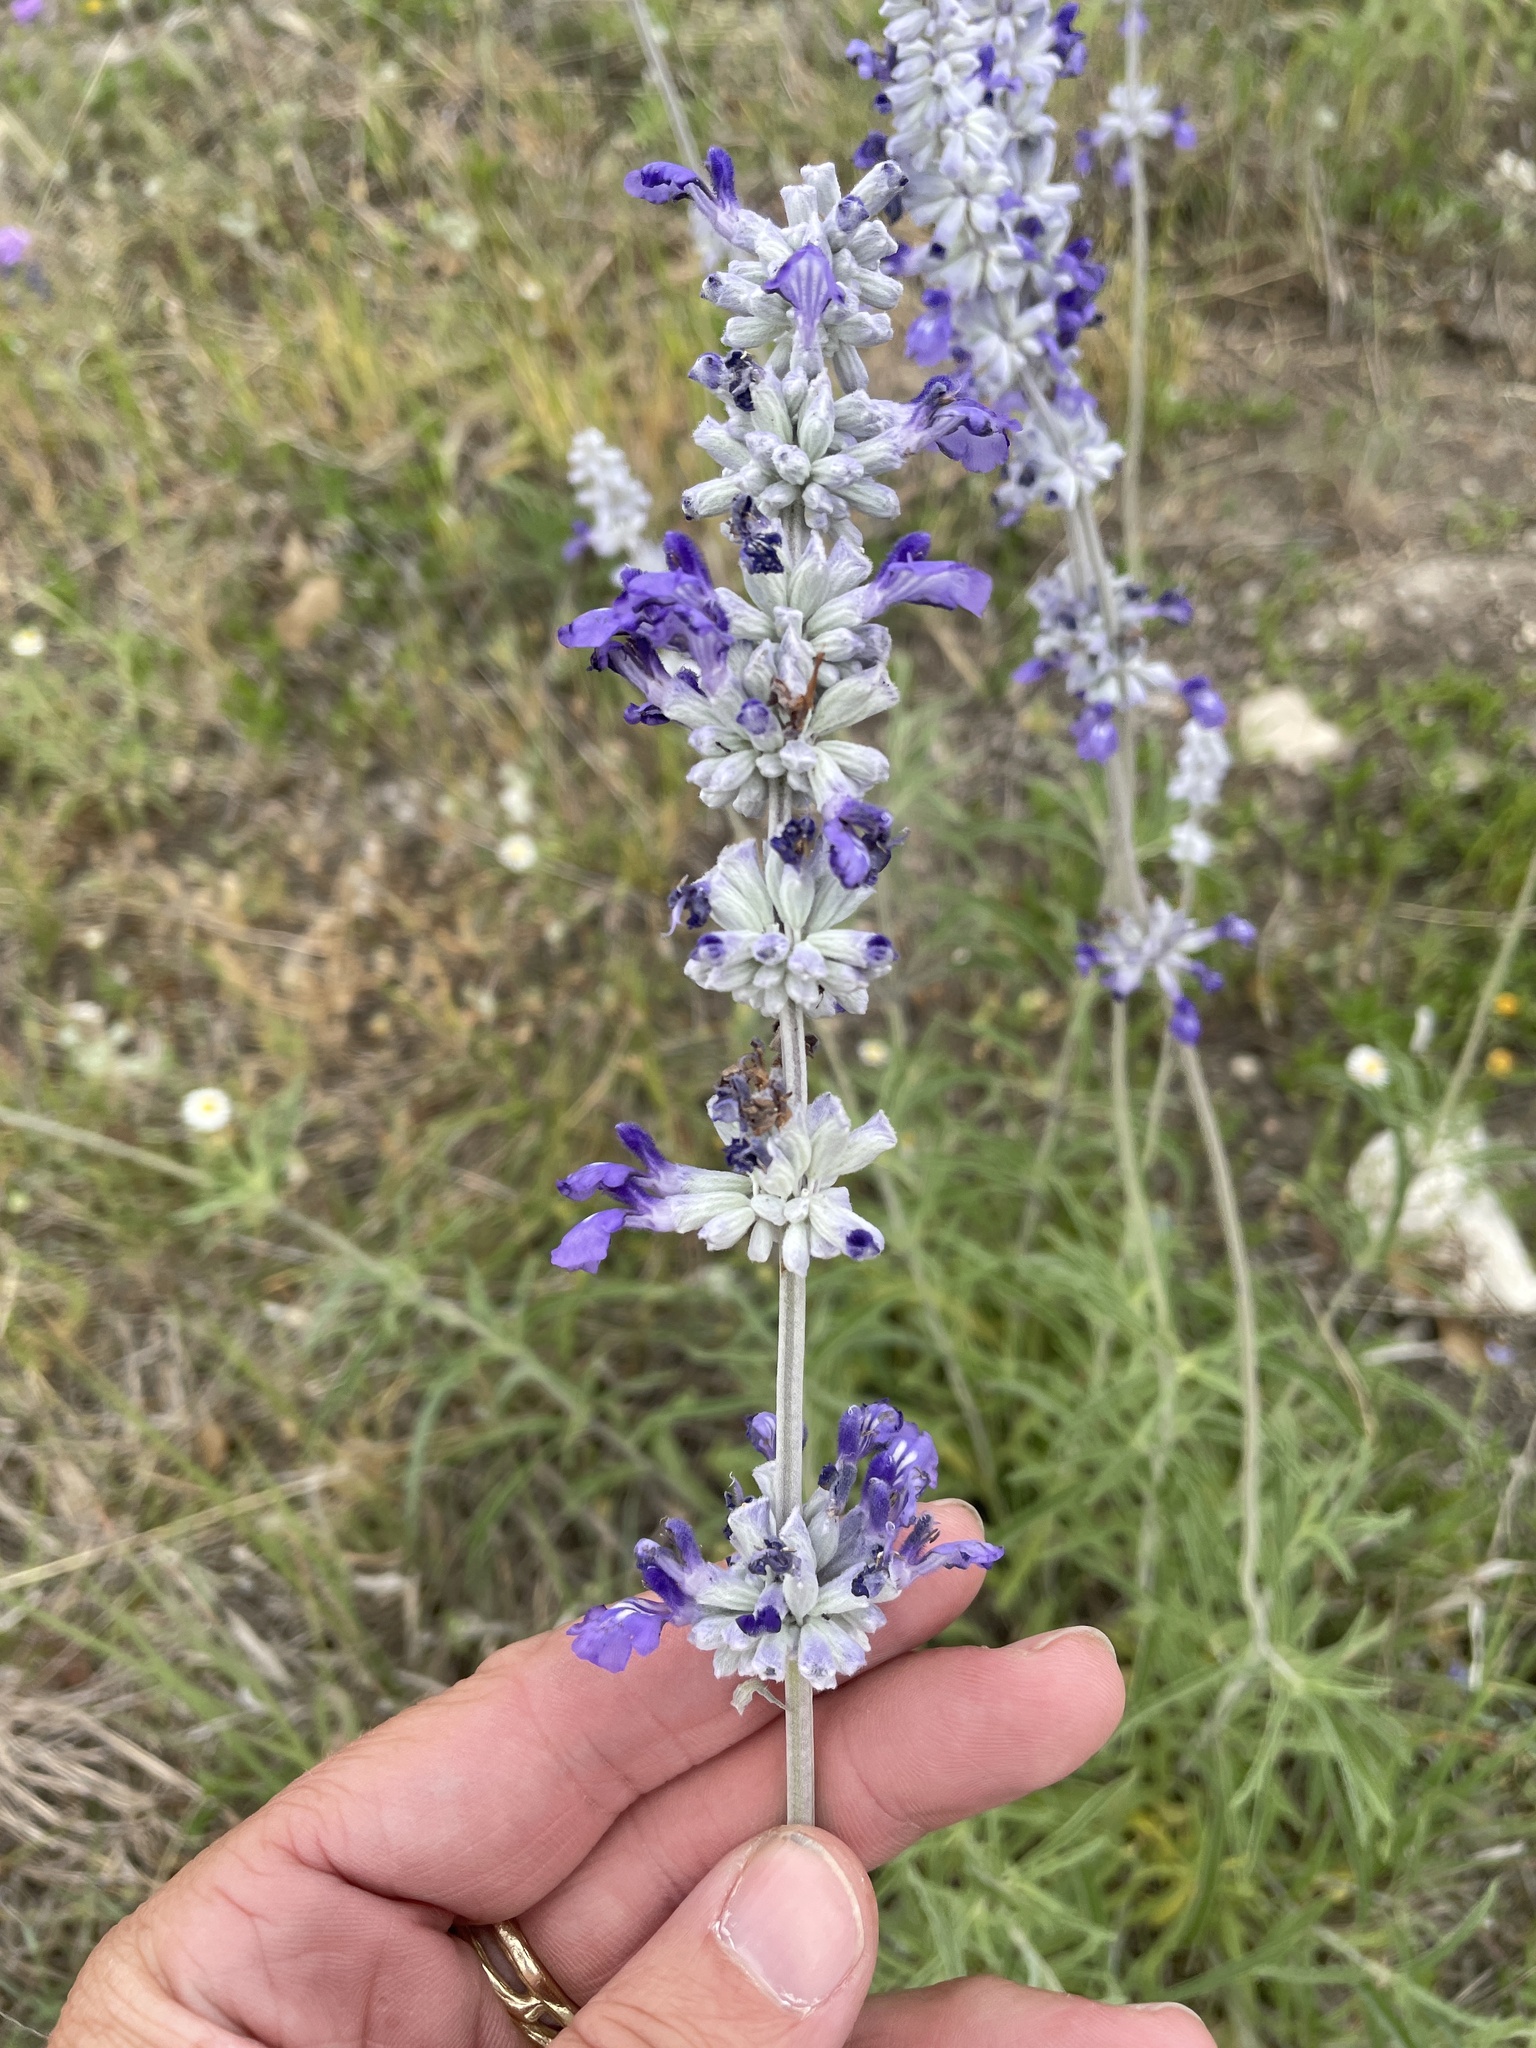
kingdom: Plantae
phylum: Tracheophyta
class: Magnoliopsida
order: Lamiales
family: Lamiaceae
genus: Salvia
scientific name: Salvia farinacea
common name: Mealy sage
